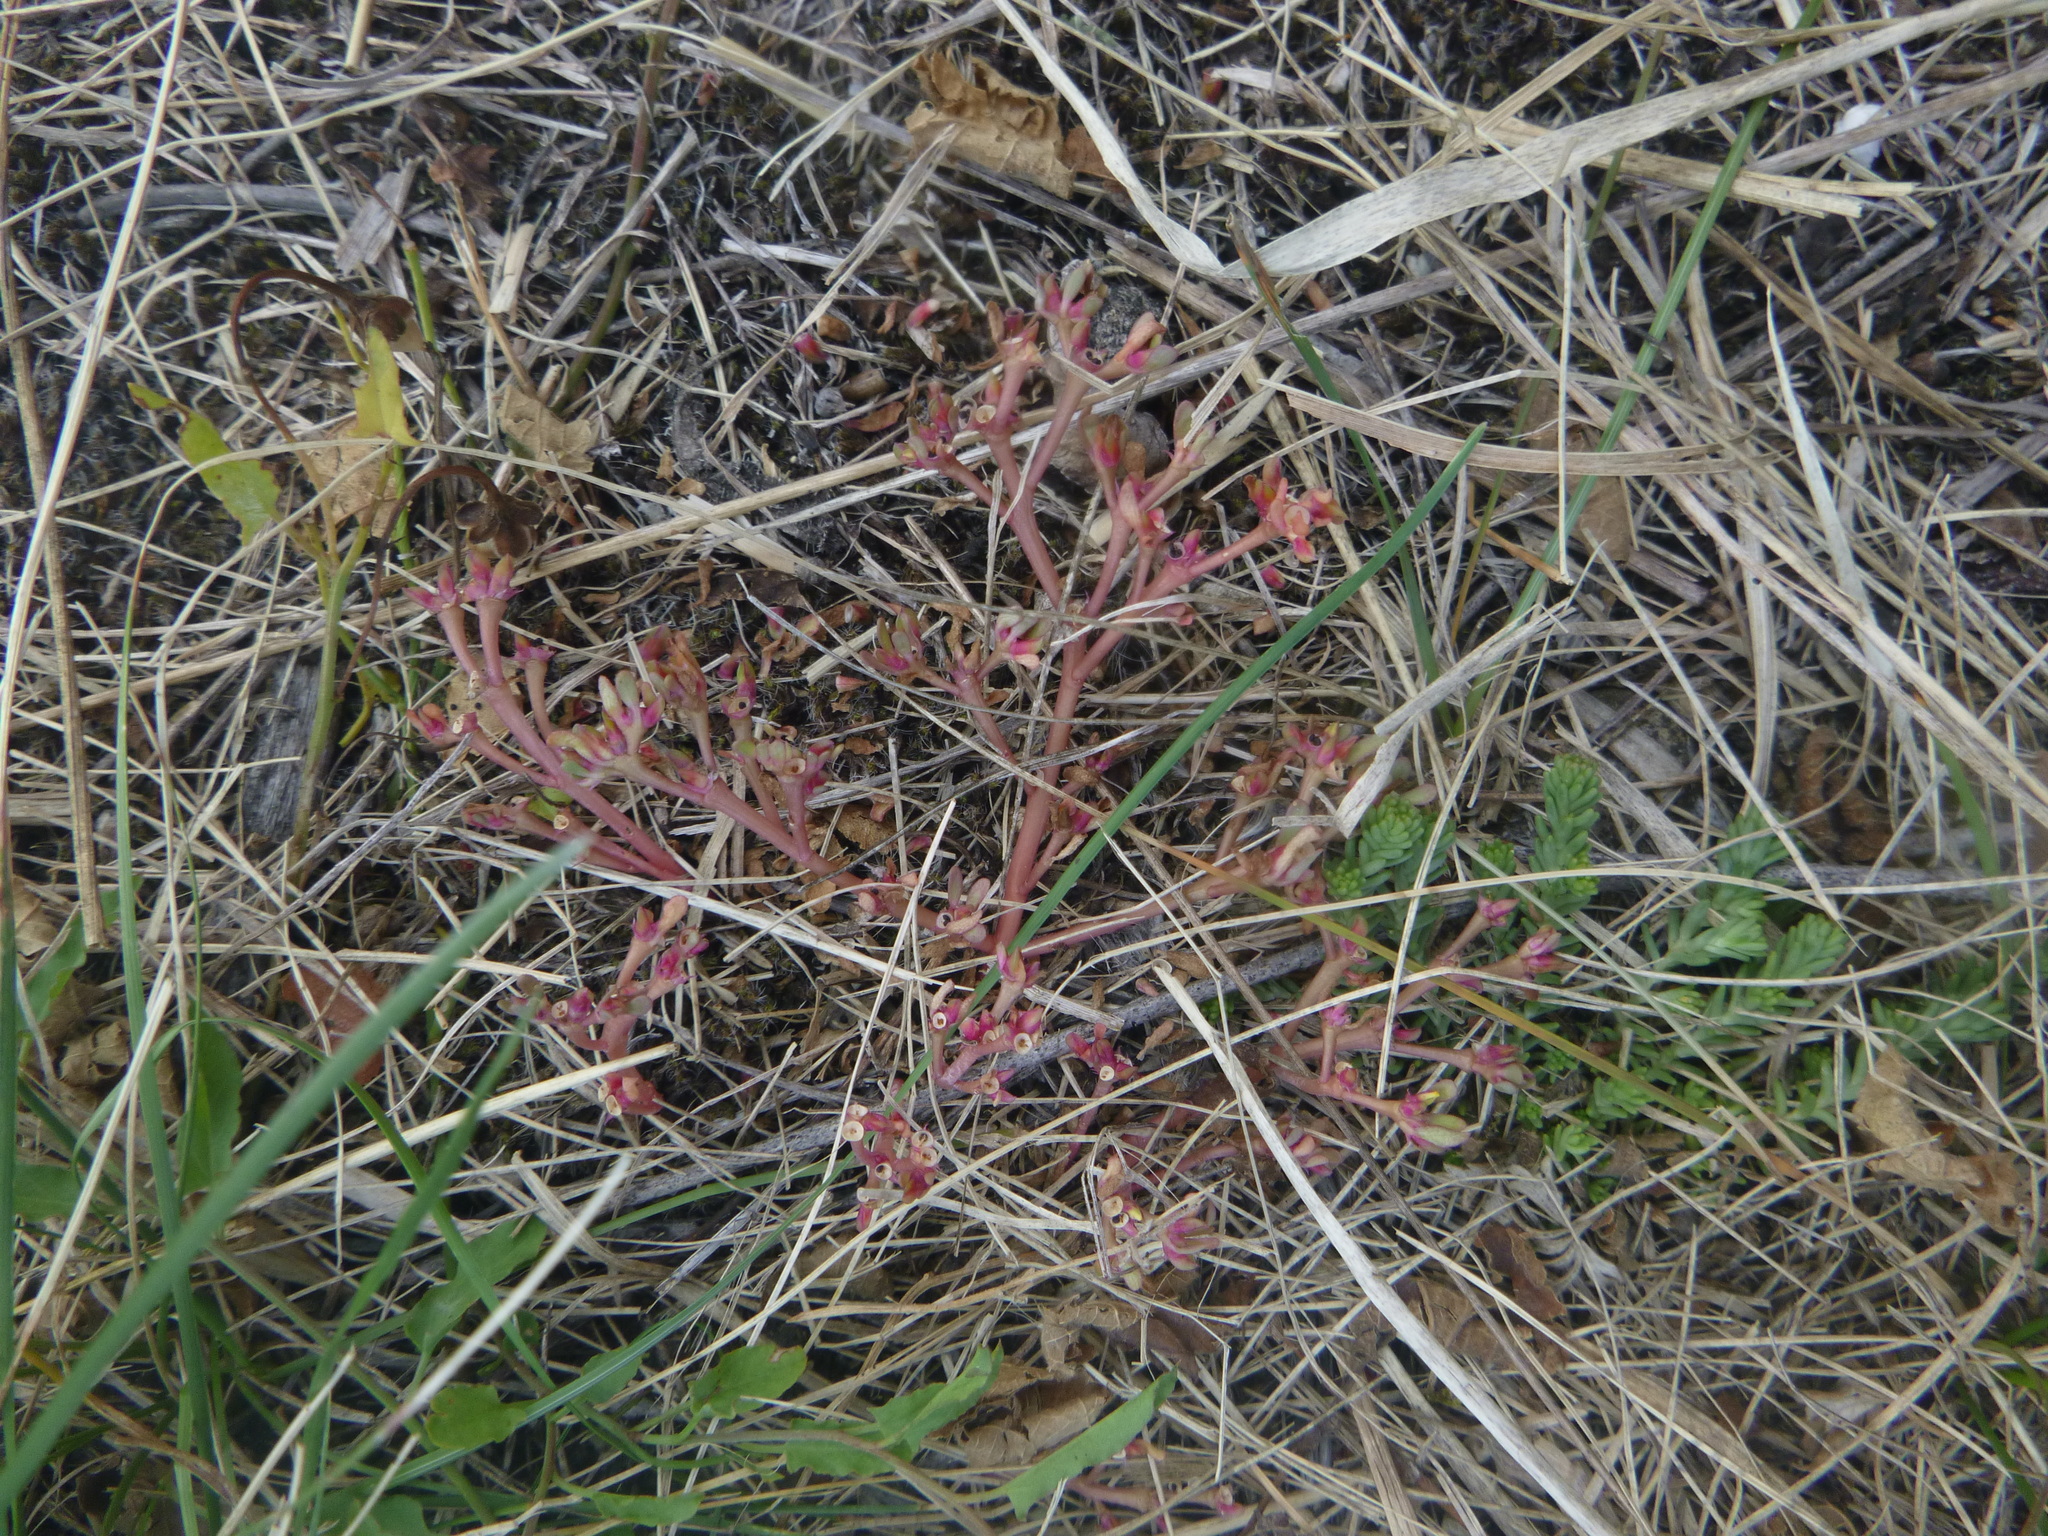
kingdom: Plantae
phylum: Tracheophyta
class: Magnoliopsida
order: Caryophyllales
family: Portulacaceae
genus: Portulaca
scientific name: Portulaca oleracea
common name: Common purslane
